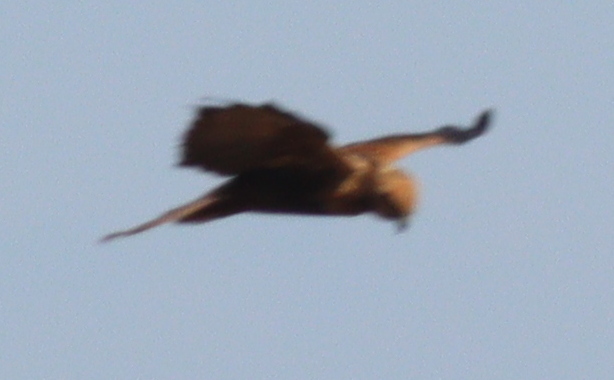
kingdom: Animalia
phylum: Chordata
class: Aves
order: Accipitriformes
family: Accipitridae
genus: Circus
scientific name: Circus aeruginosus
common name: Western marsh harrier
